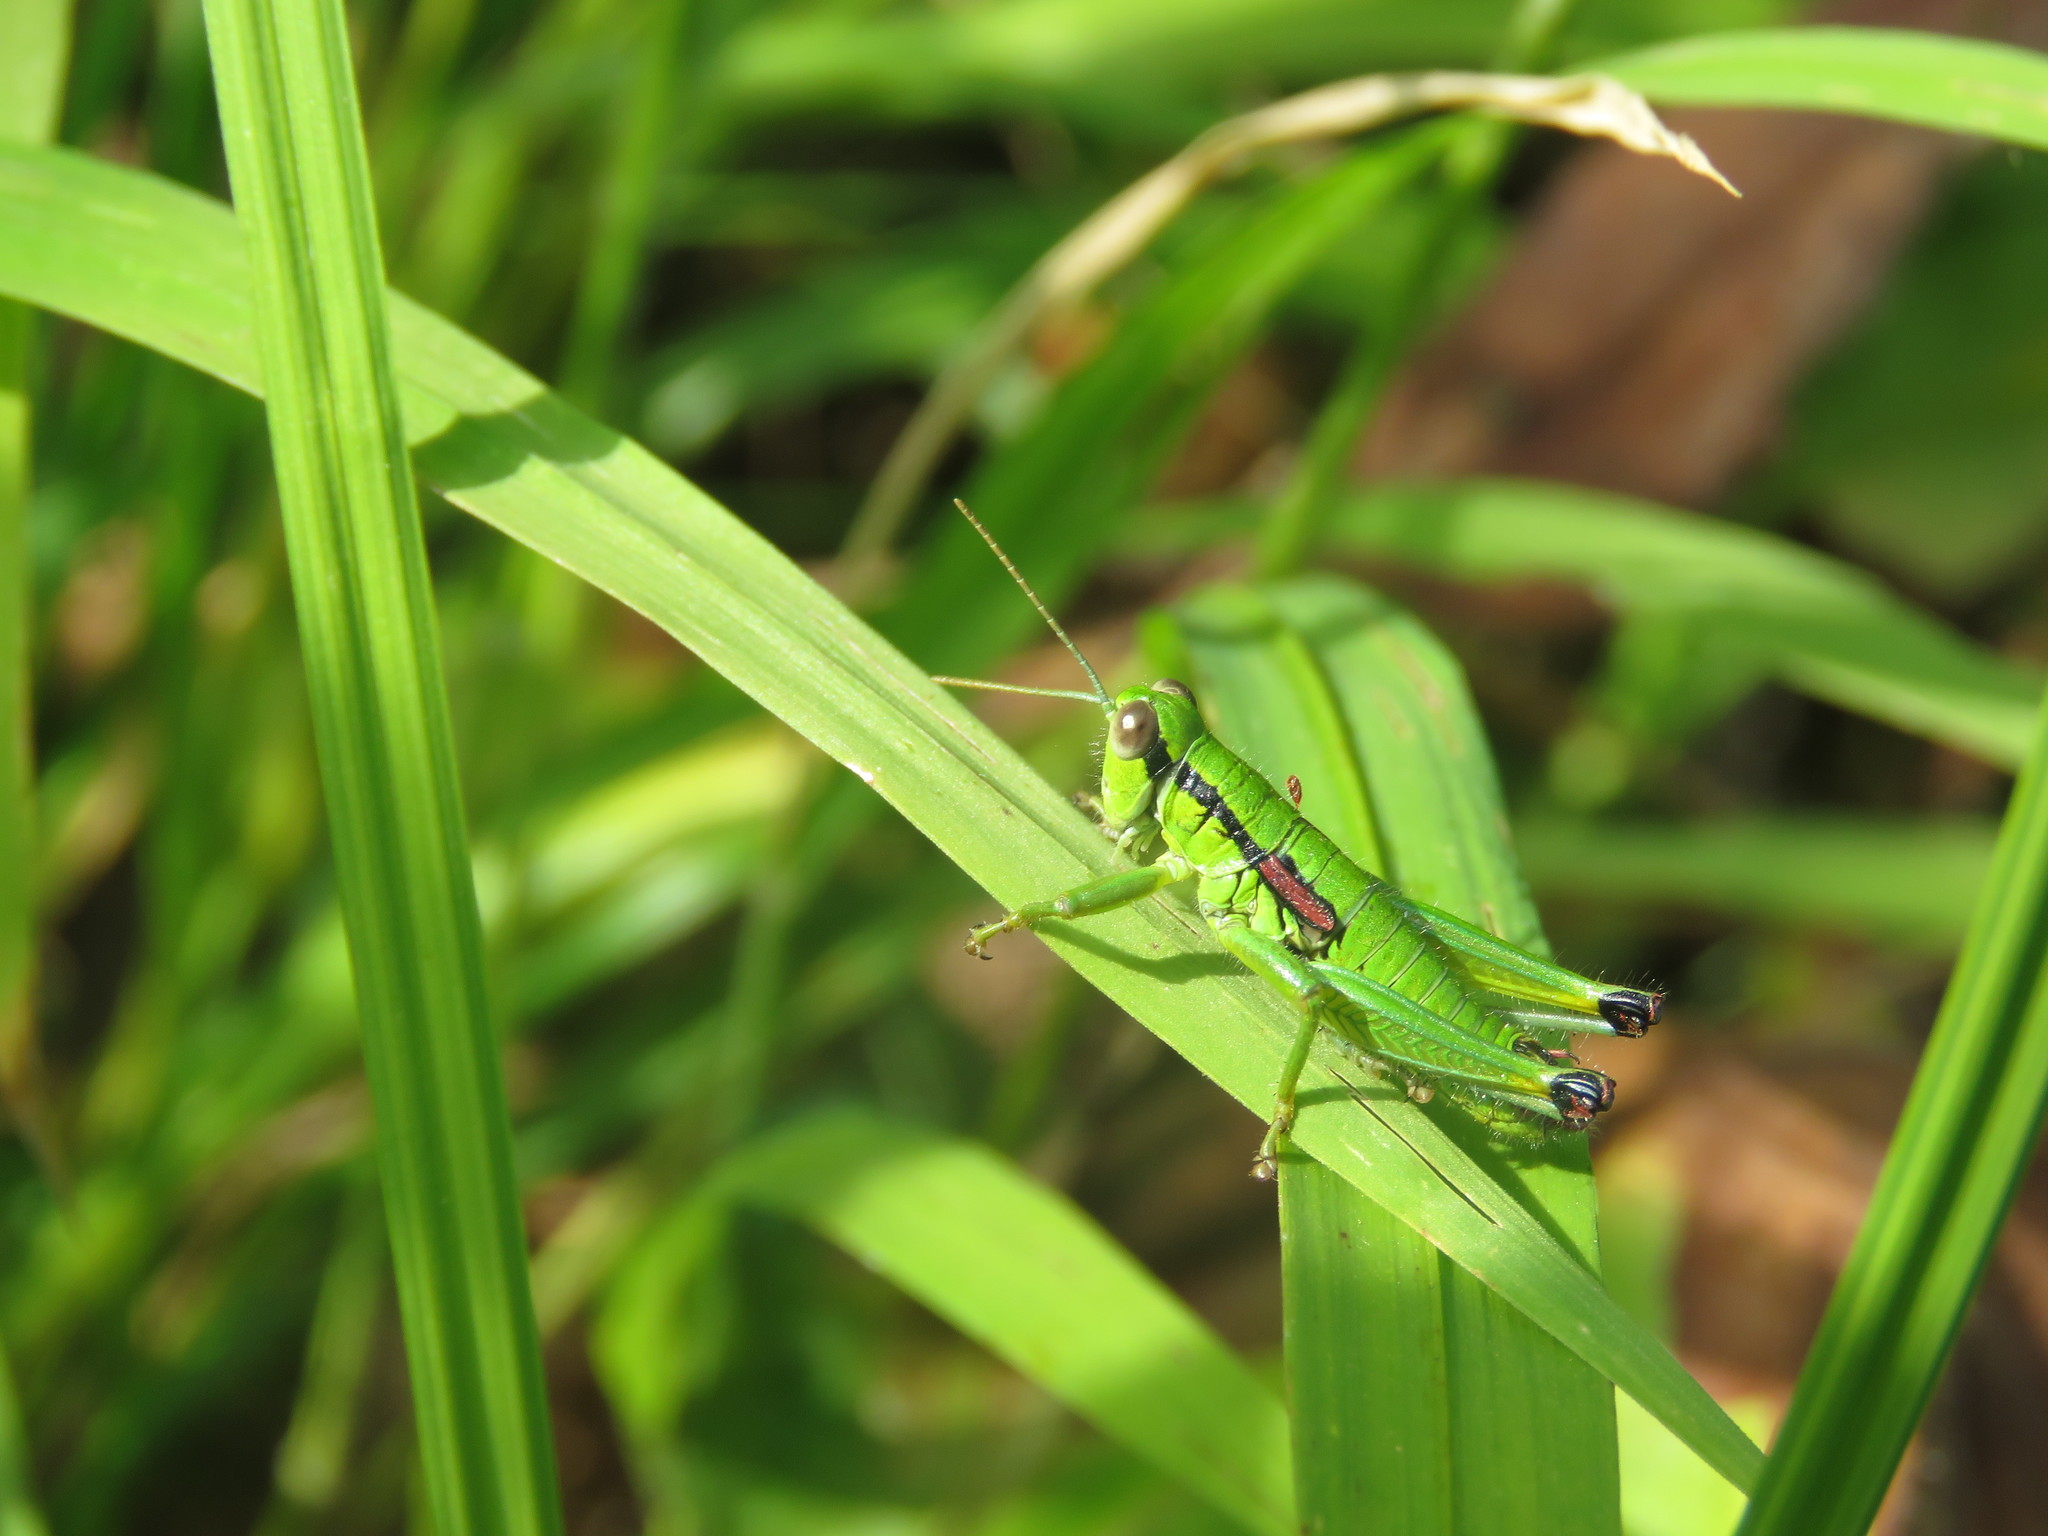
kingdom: Animalia
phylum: Arthropoda
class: Insecta
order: Orthoptera
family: Acrididae
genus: Odontopodisma
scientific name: Odontopodisma decipiens
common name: Cheating mountain grasshopper
